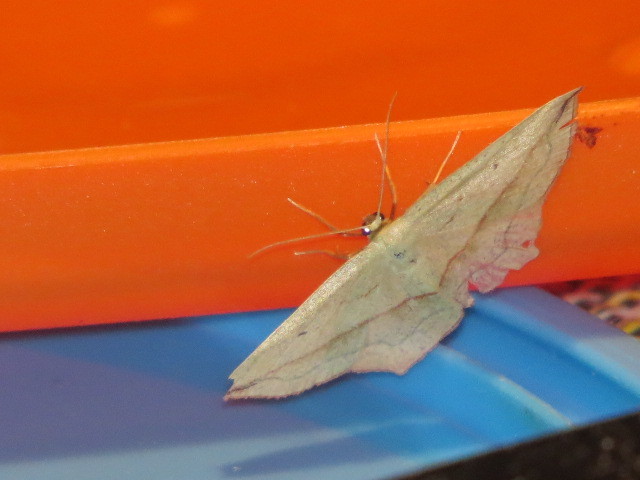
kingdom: Animalia
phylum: Arthropoda
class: Insecta
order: Lepidoptera
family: Geometridae
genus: Timandra
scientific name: Timandra comae
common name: Blood-vein
